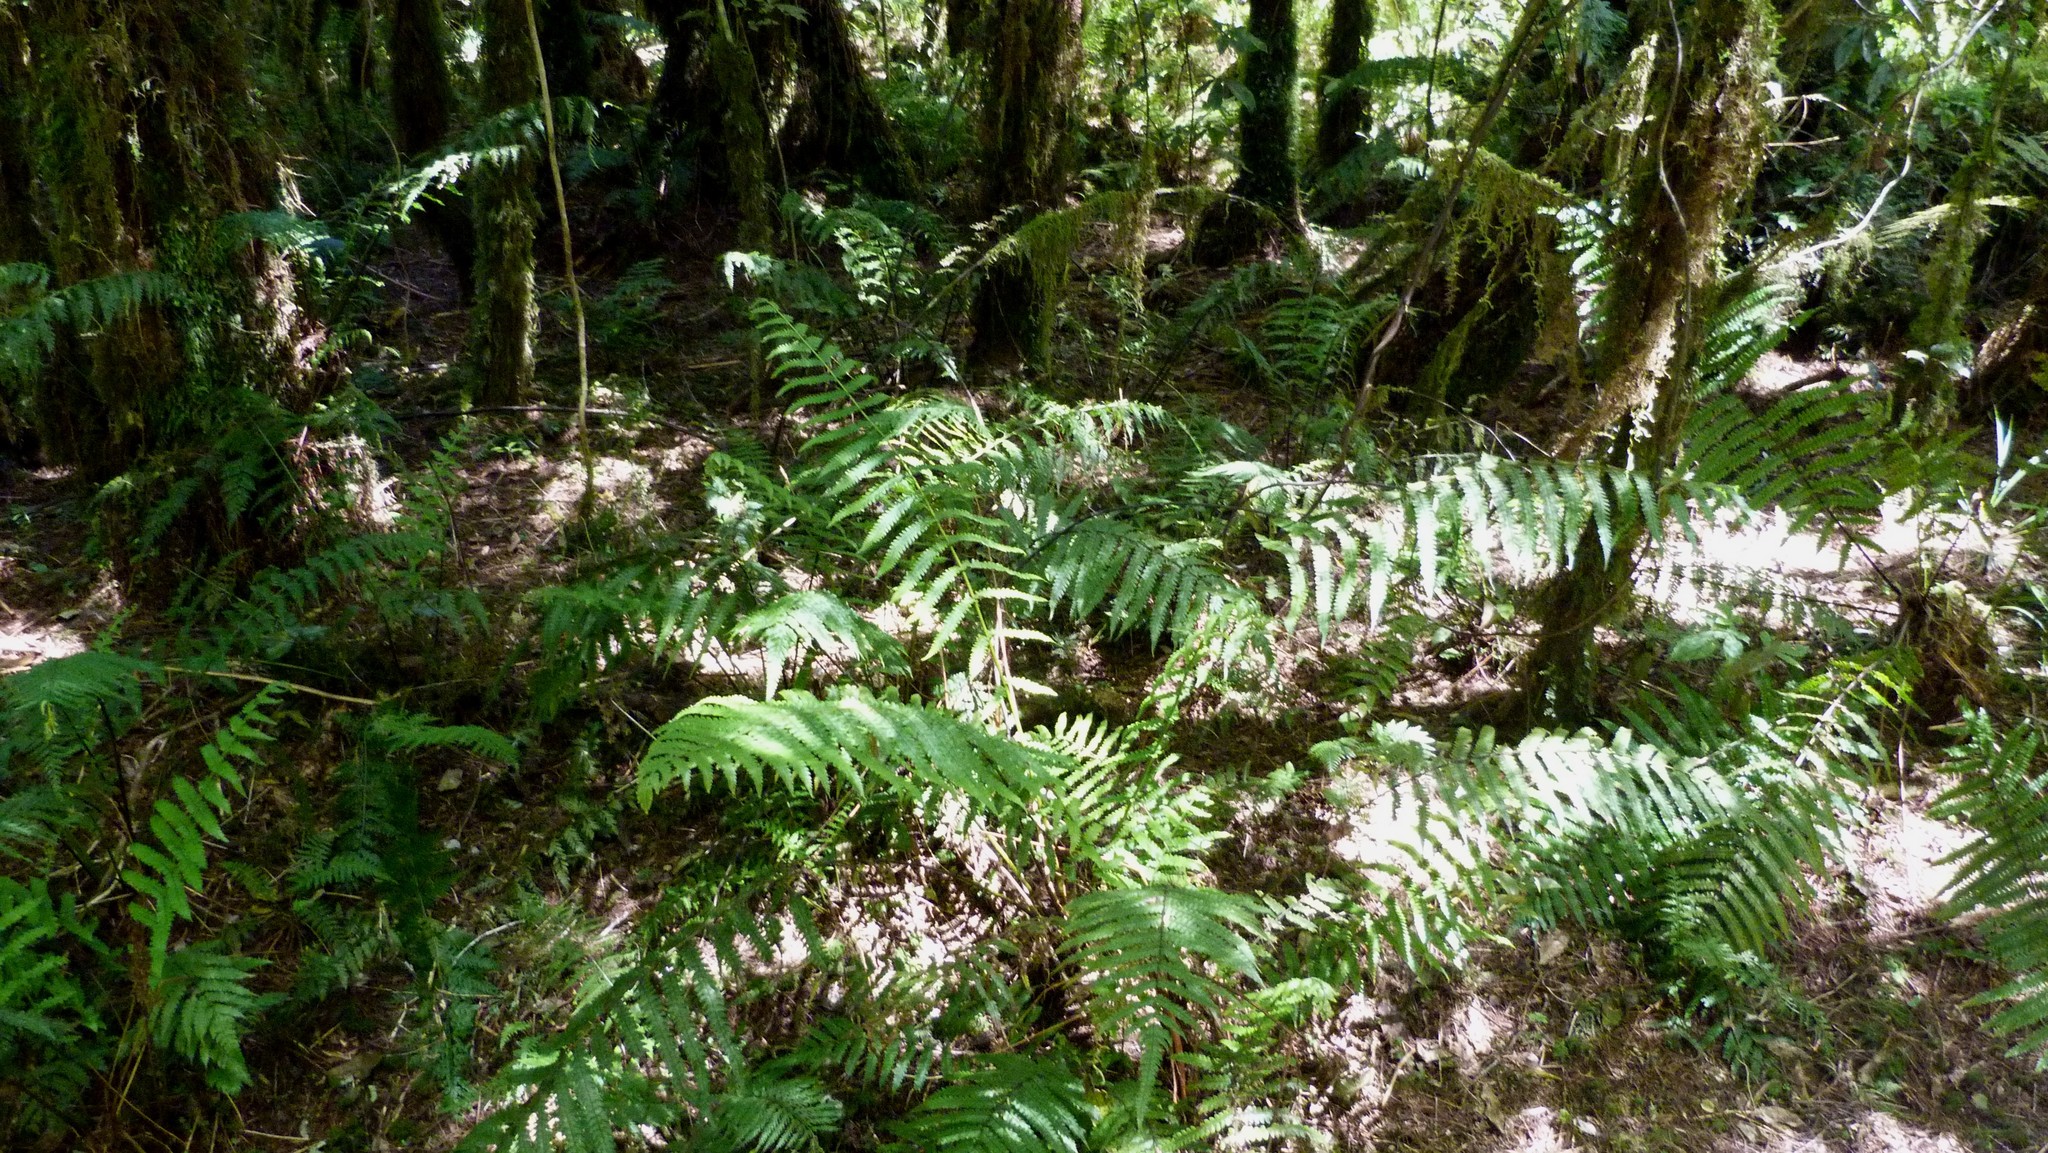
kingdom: Plantae
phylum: Tracheophyta
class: Polypodiopsida
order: Polypodiales
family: Thelypteridaceae
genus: Pakau
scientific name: Pakau pennigera
